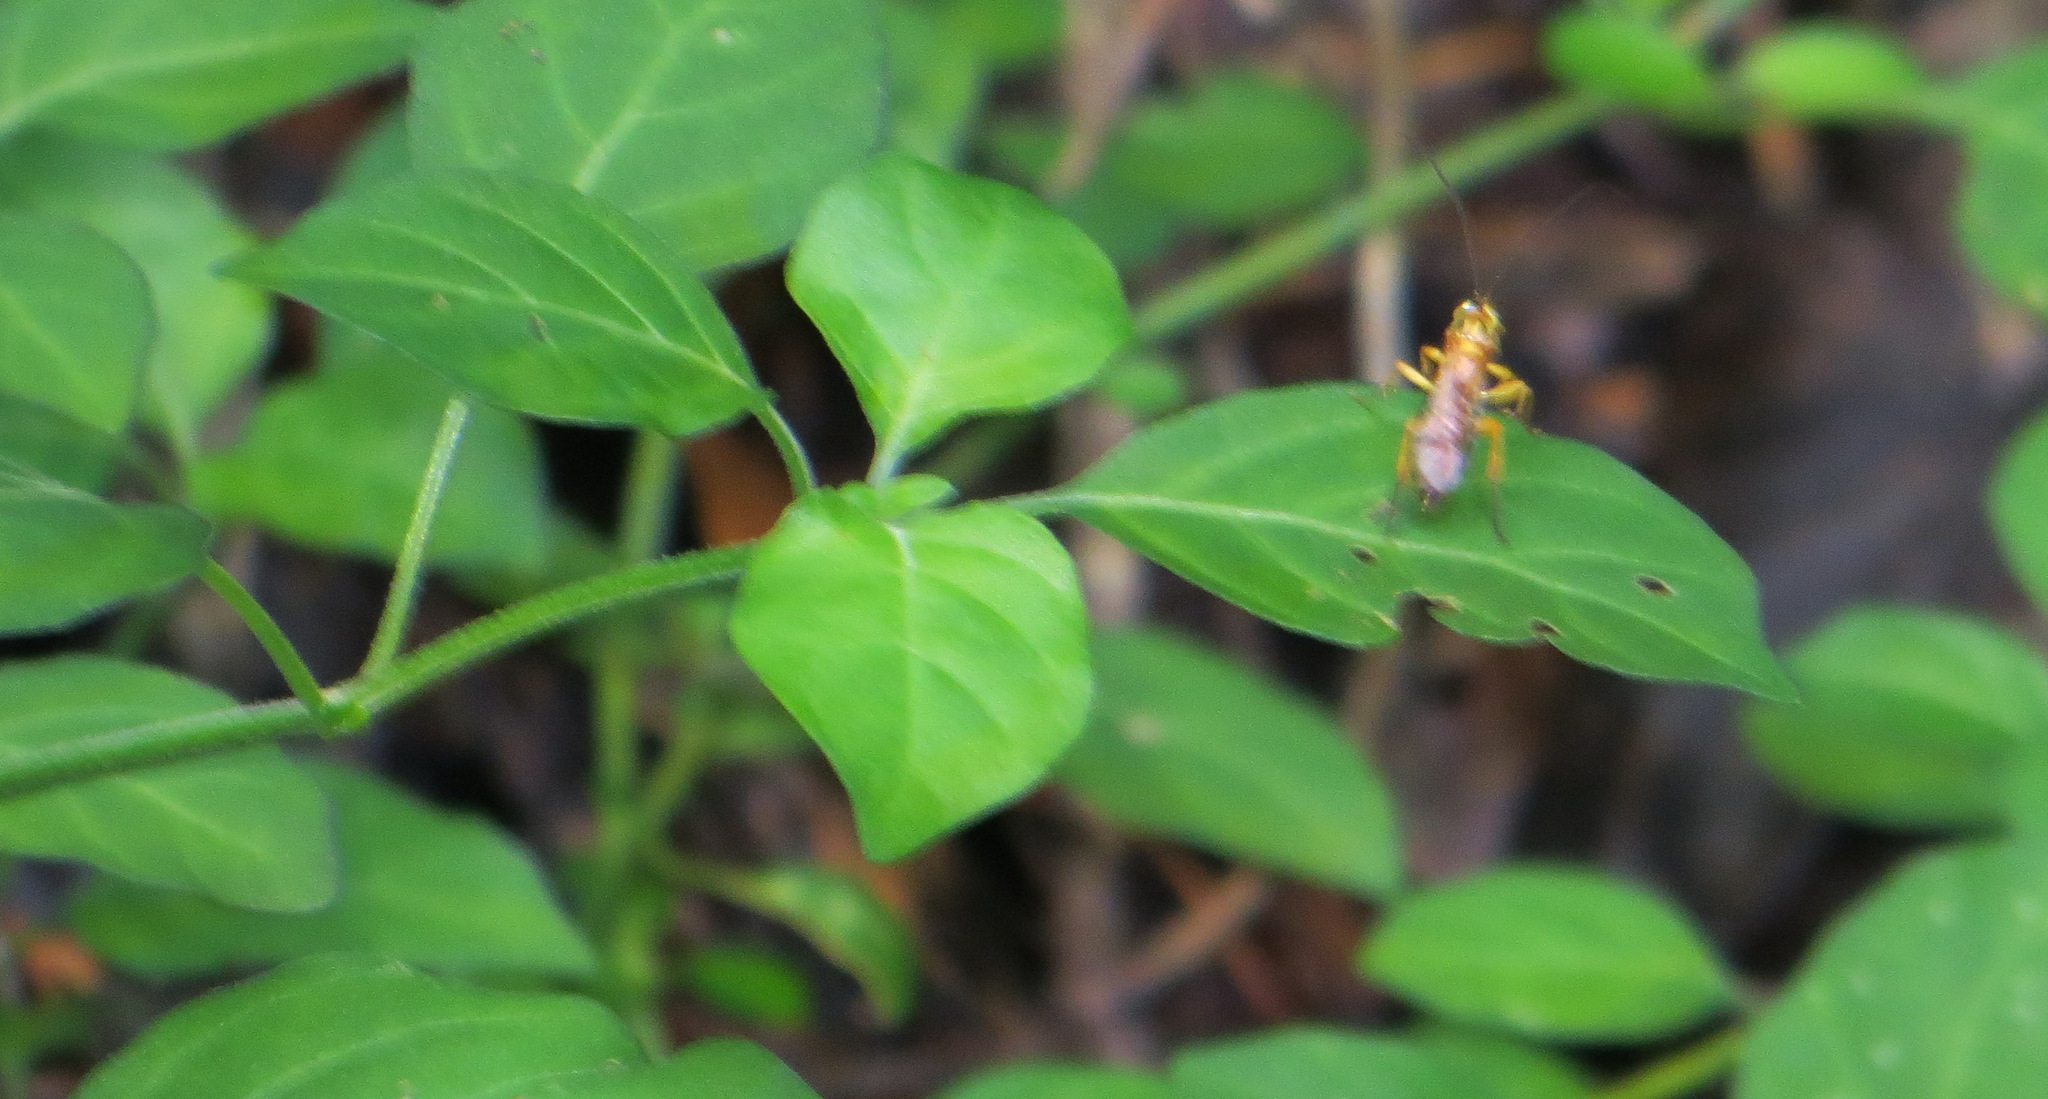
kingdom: Plantae
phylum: Tracheophyta
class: Magnoliopsida
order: Lamiales
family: Acanthaceae
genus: Hypoestes
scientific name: Hypoestes aristata
